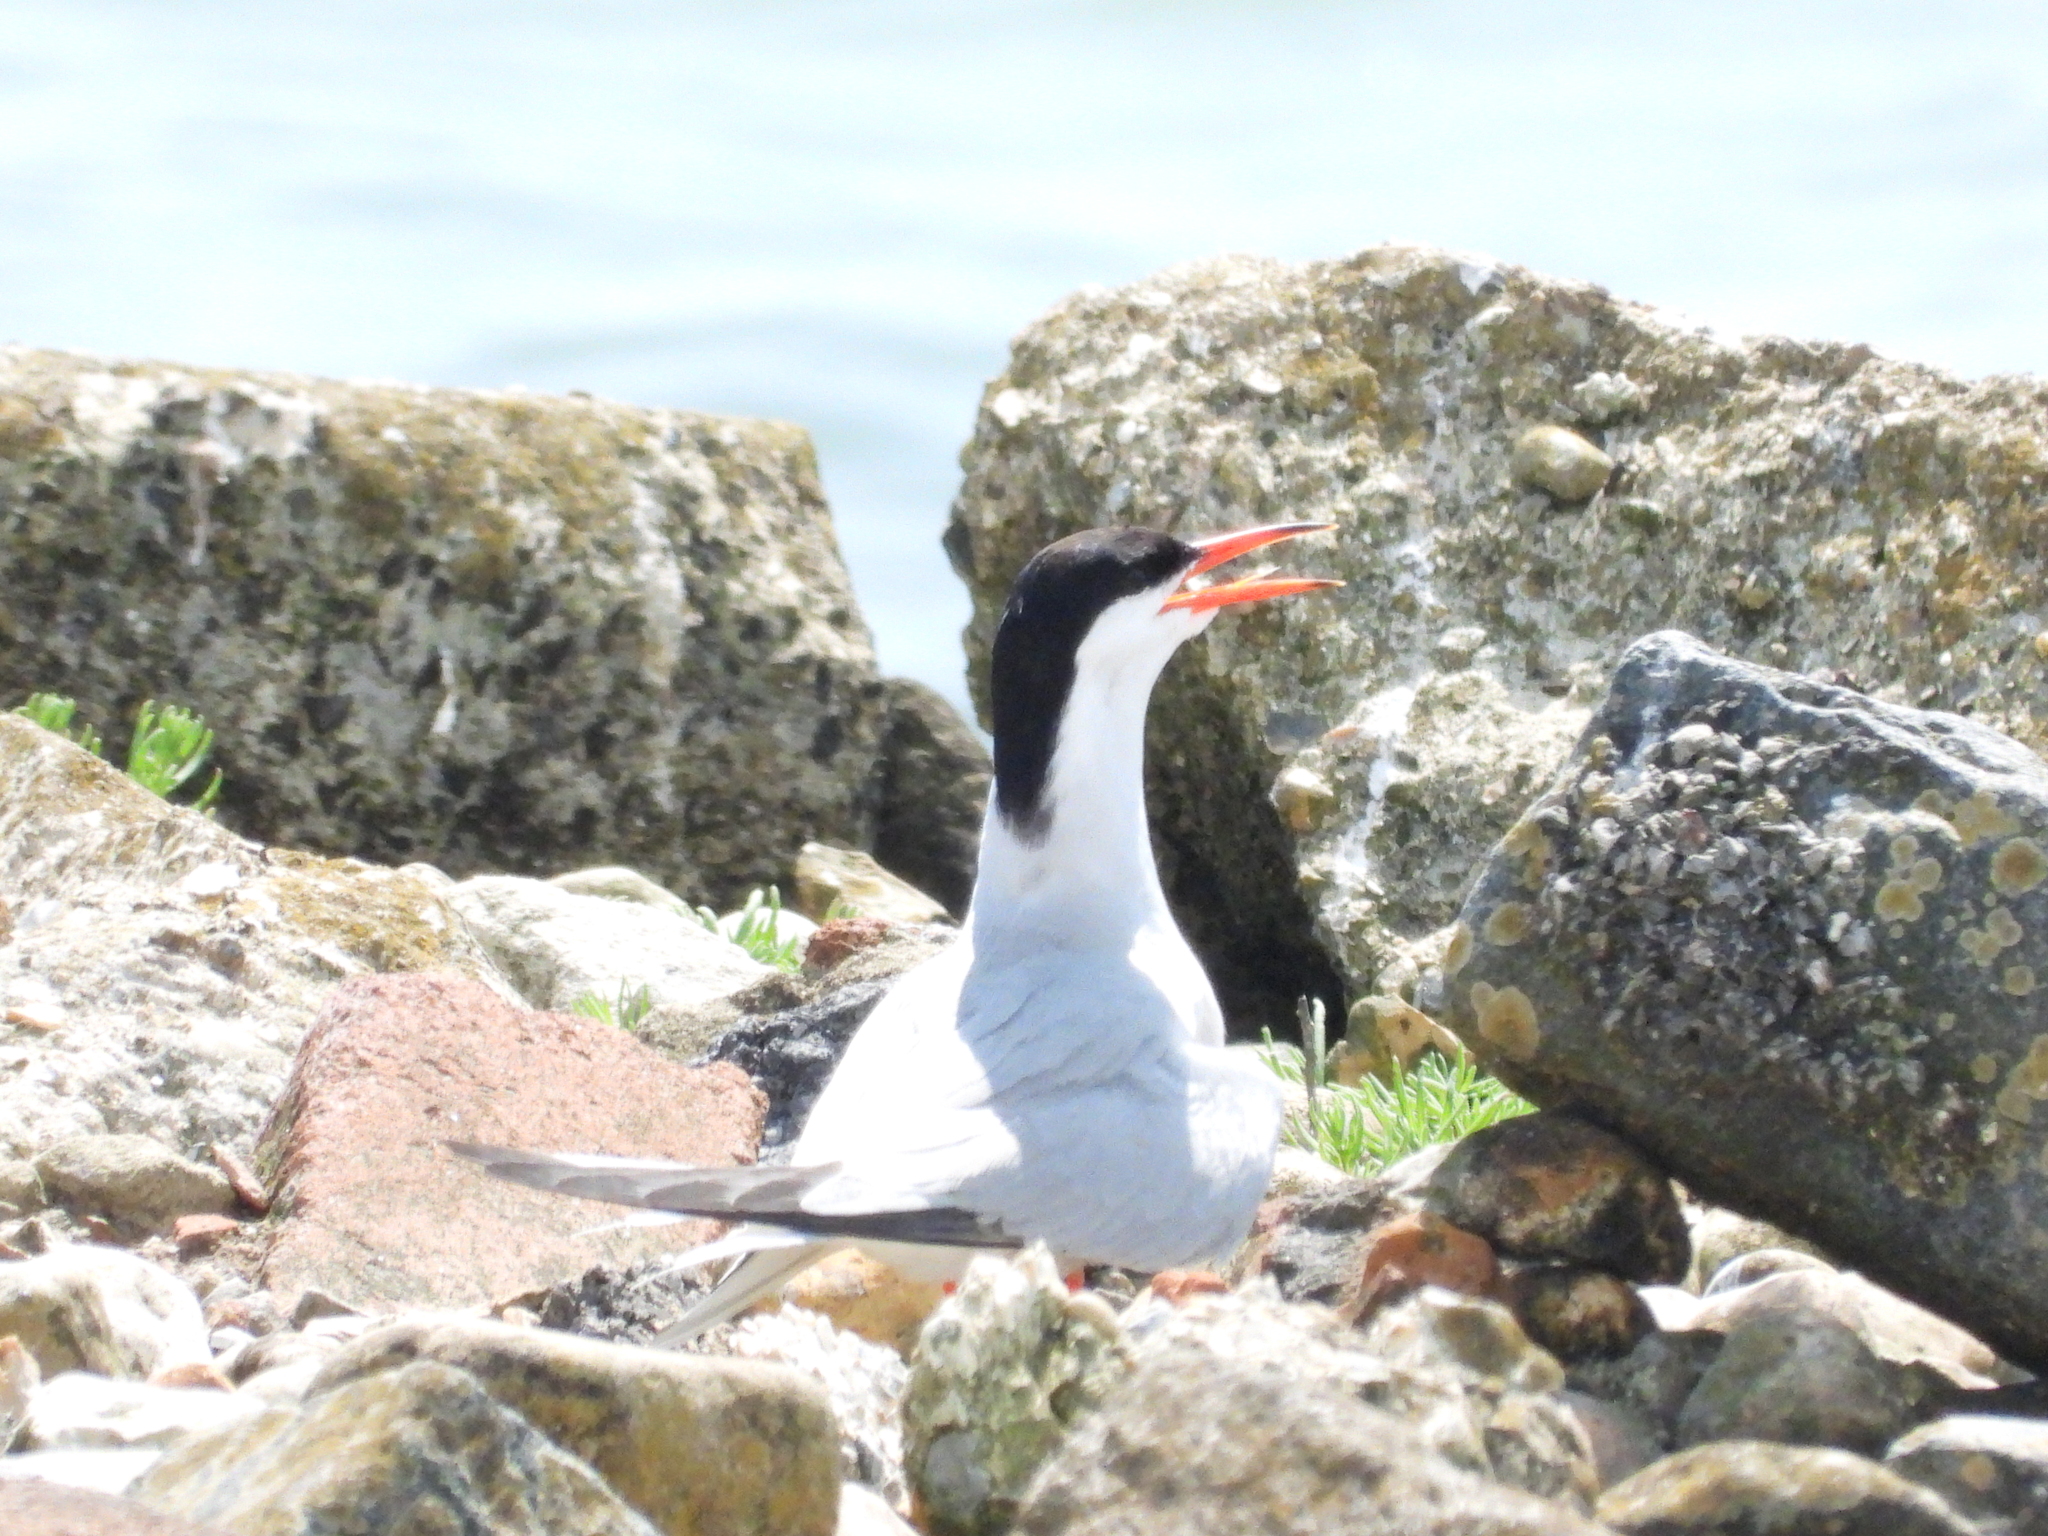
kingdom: Animalia
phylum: Chordata
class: Aves
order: Charadriiformes
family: Laridae
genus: Sterna
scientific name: Sterna hirundo
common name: Common tern
